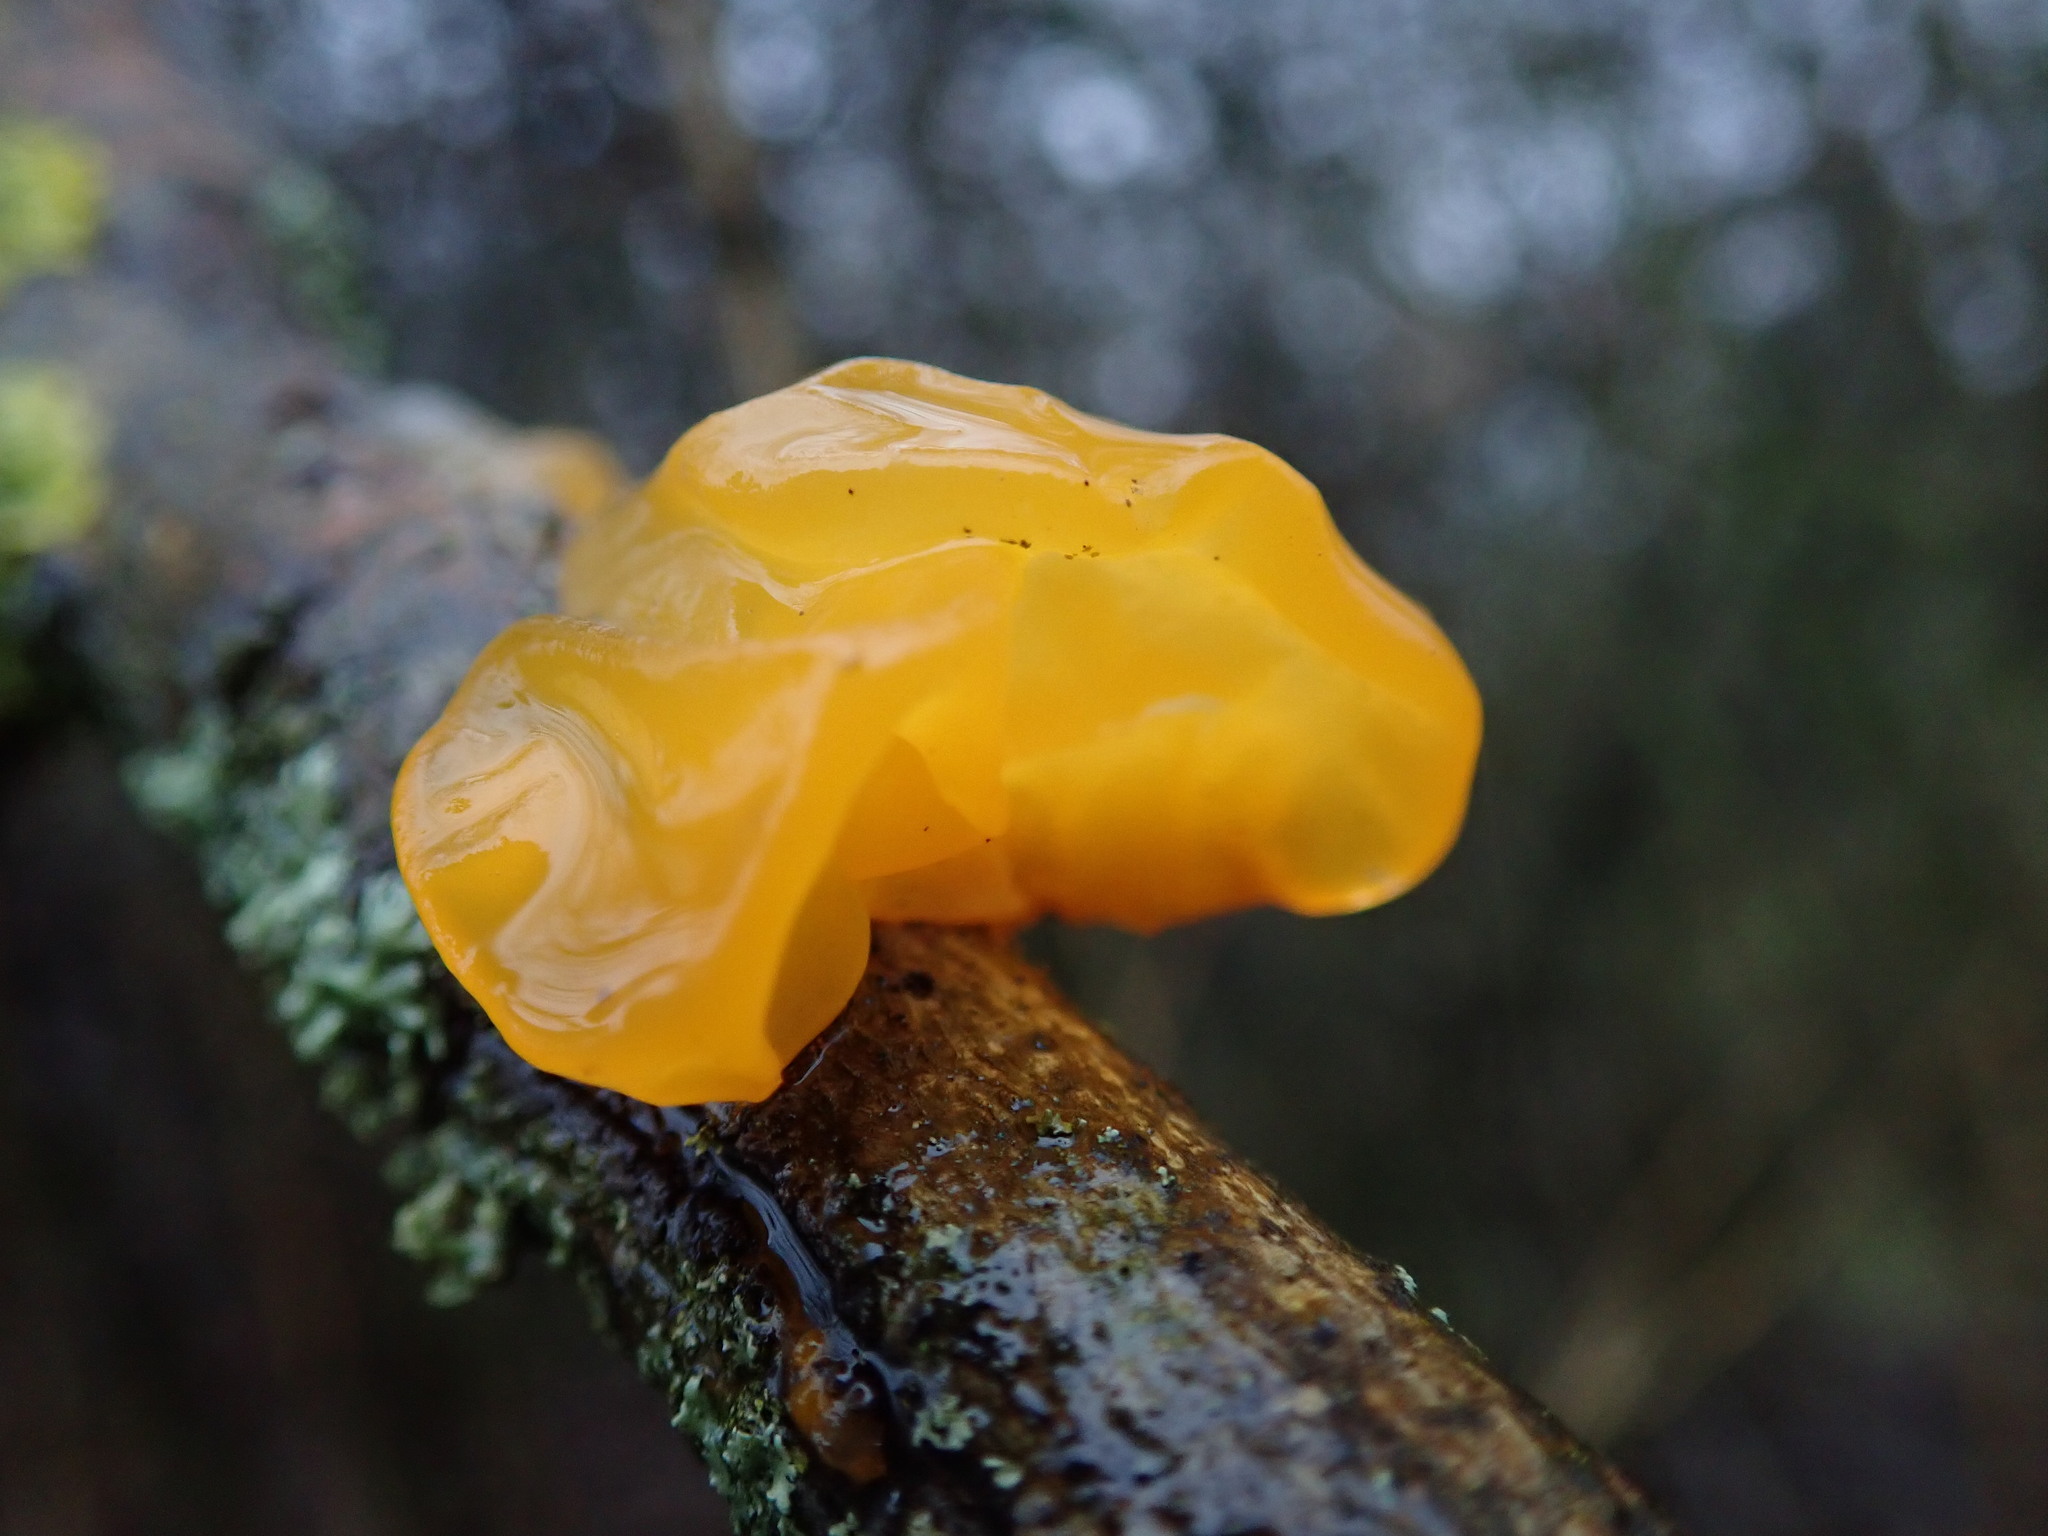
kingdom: Fungi
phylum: Basidiomycota
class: Tremellomycetes
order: Tremellales
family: Tremellaceae
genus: Tremella
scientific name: Tremella mesenterica
